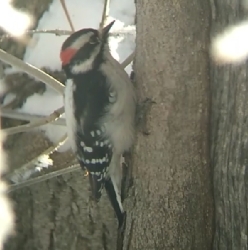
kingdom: Animalia
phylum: Chordata
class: Aves
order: Piciformes
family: Picidae
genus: Dryobates
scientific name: Dryobates pubescens
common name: Downy woodpecker
